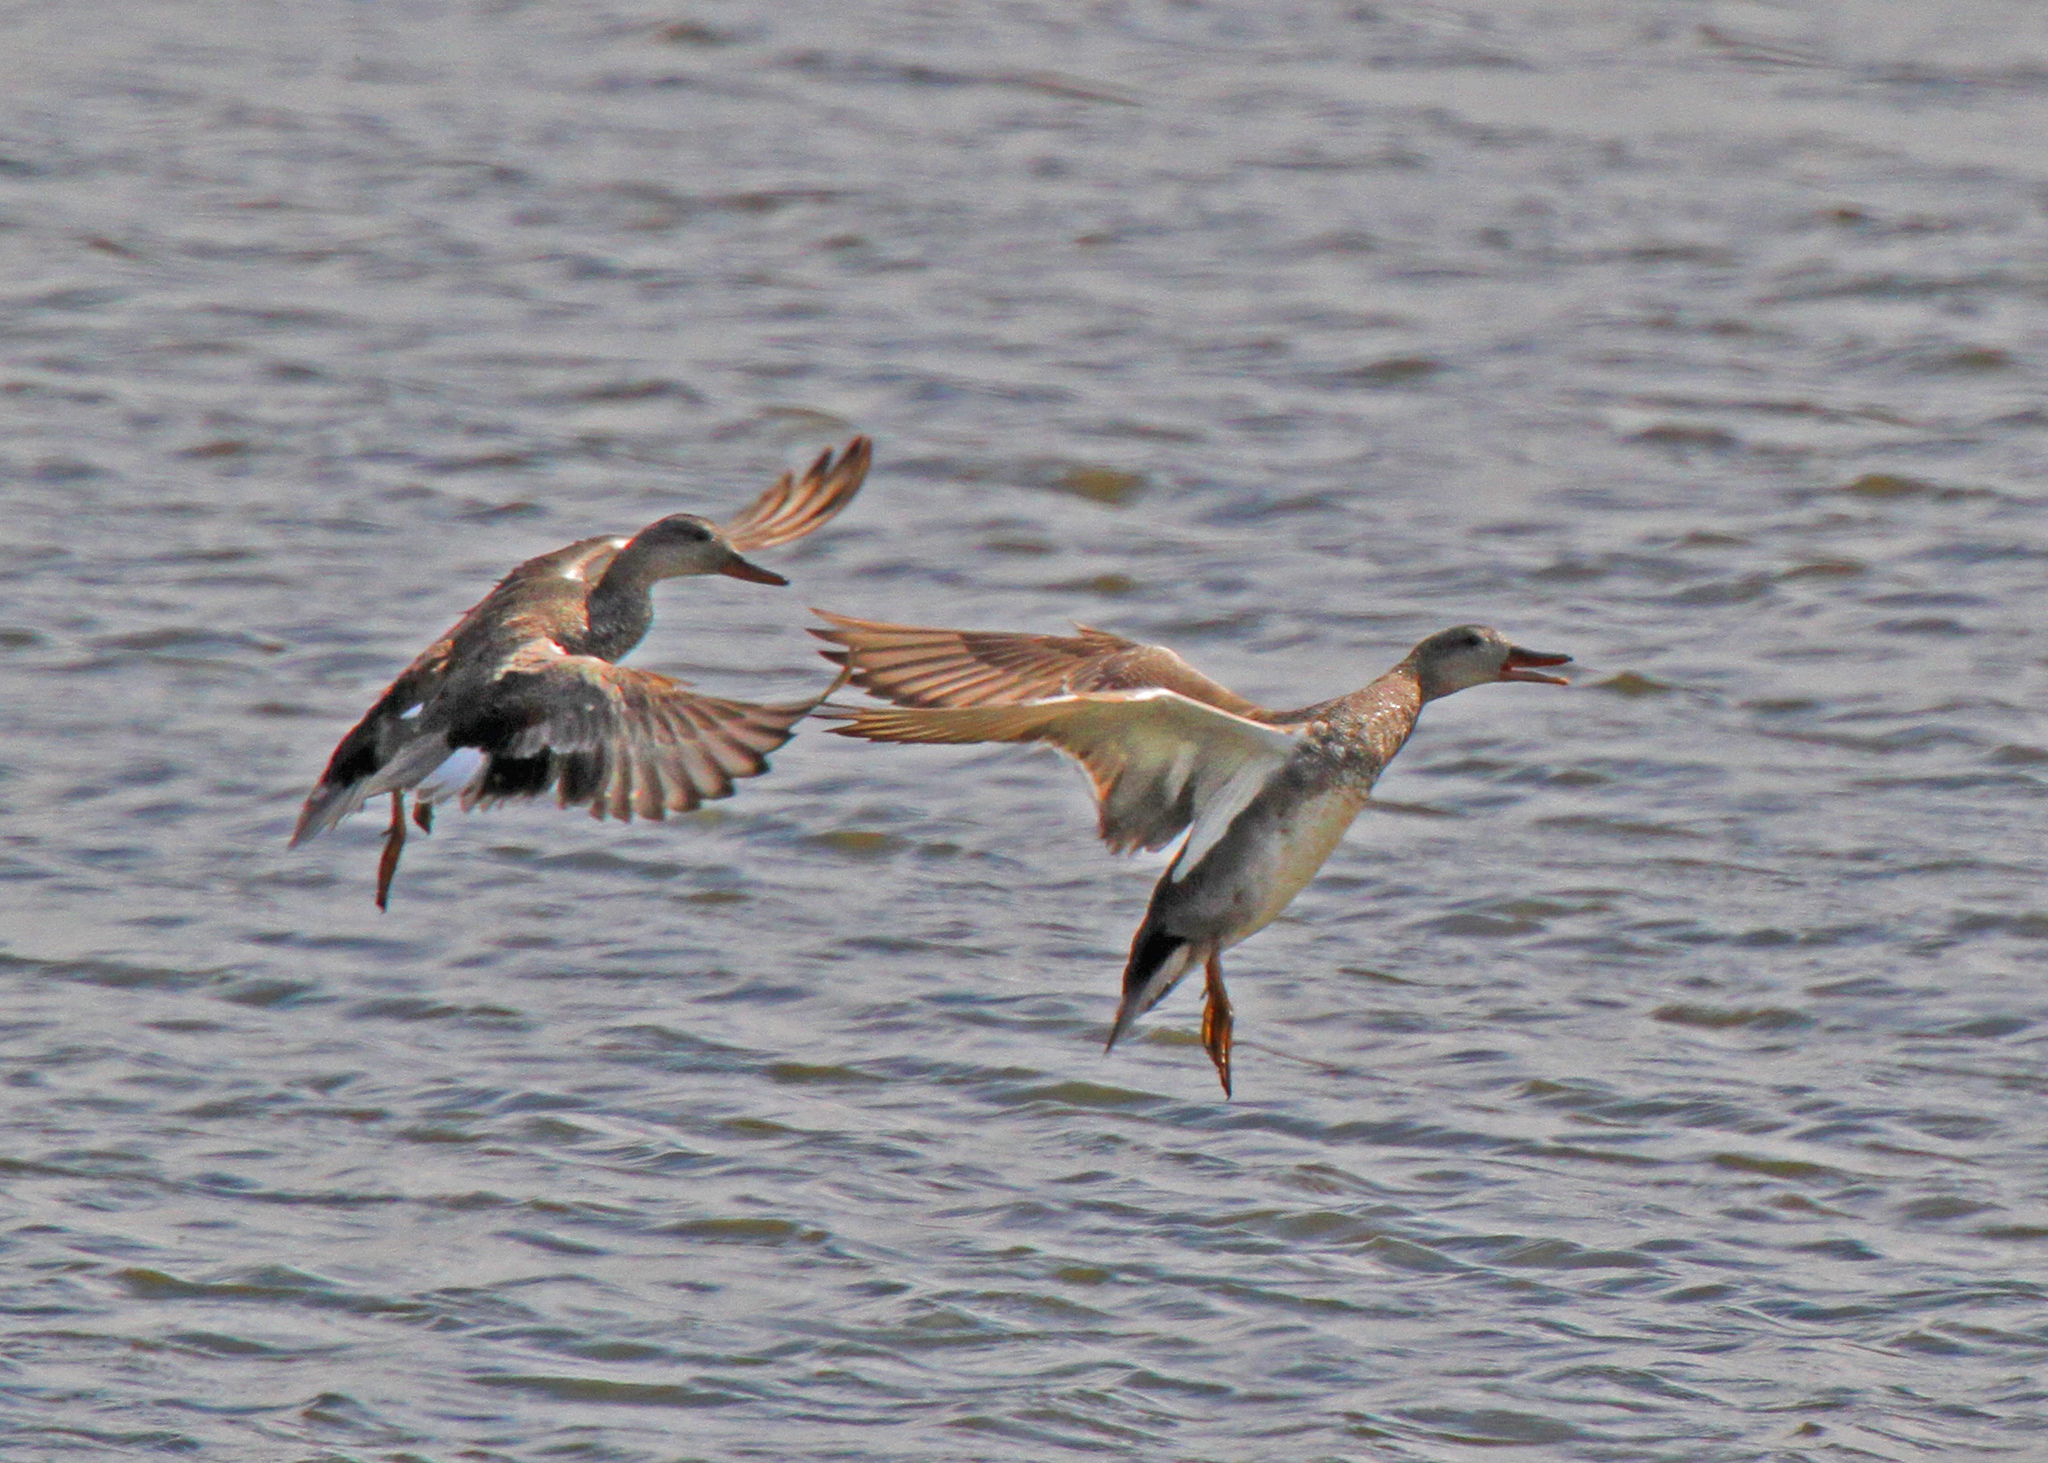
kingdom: Animalia
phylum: Chordata
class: Aves
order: Anseriformes
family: Anatidae
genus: Mareca
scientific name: Mareca strepera
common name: Gadwall
